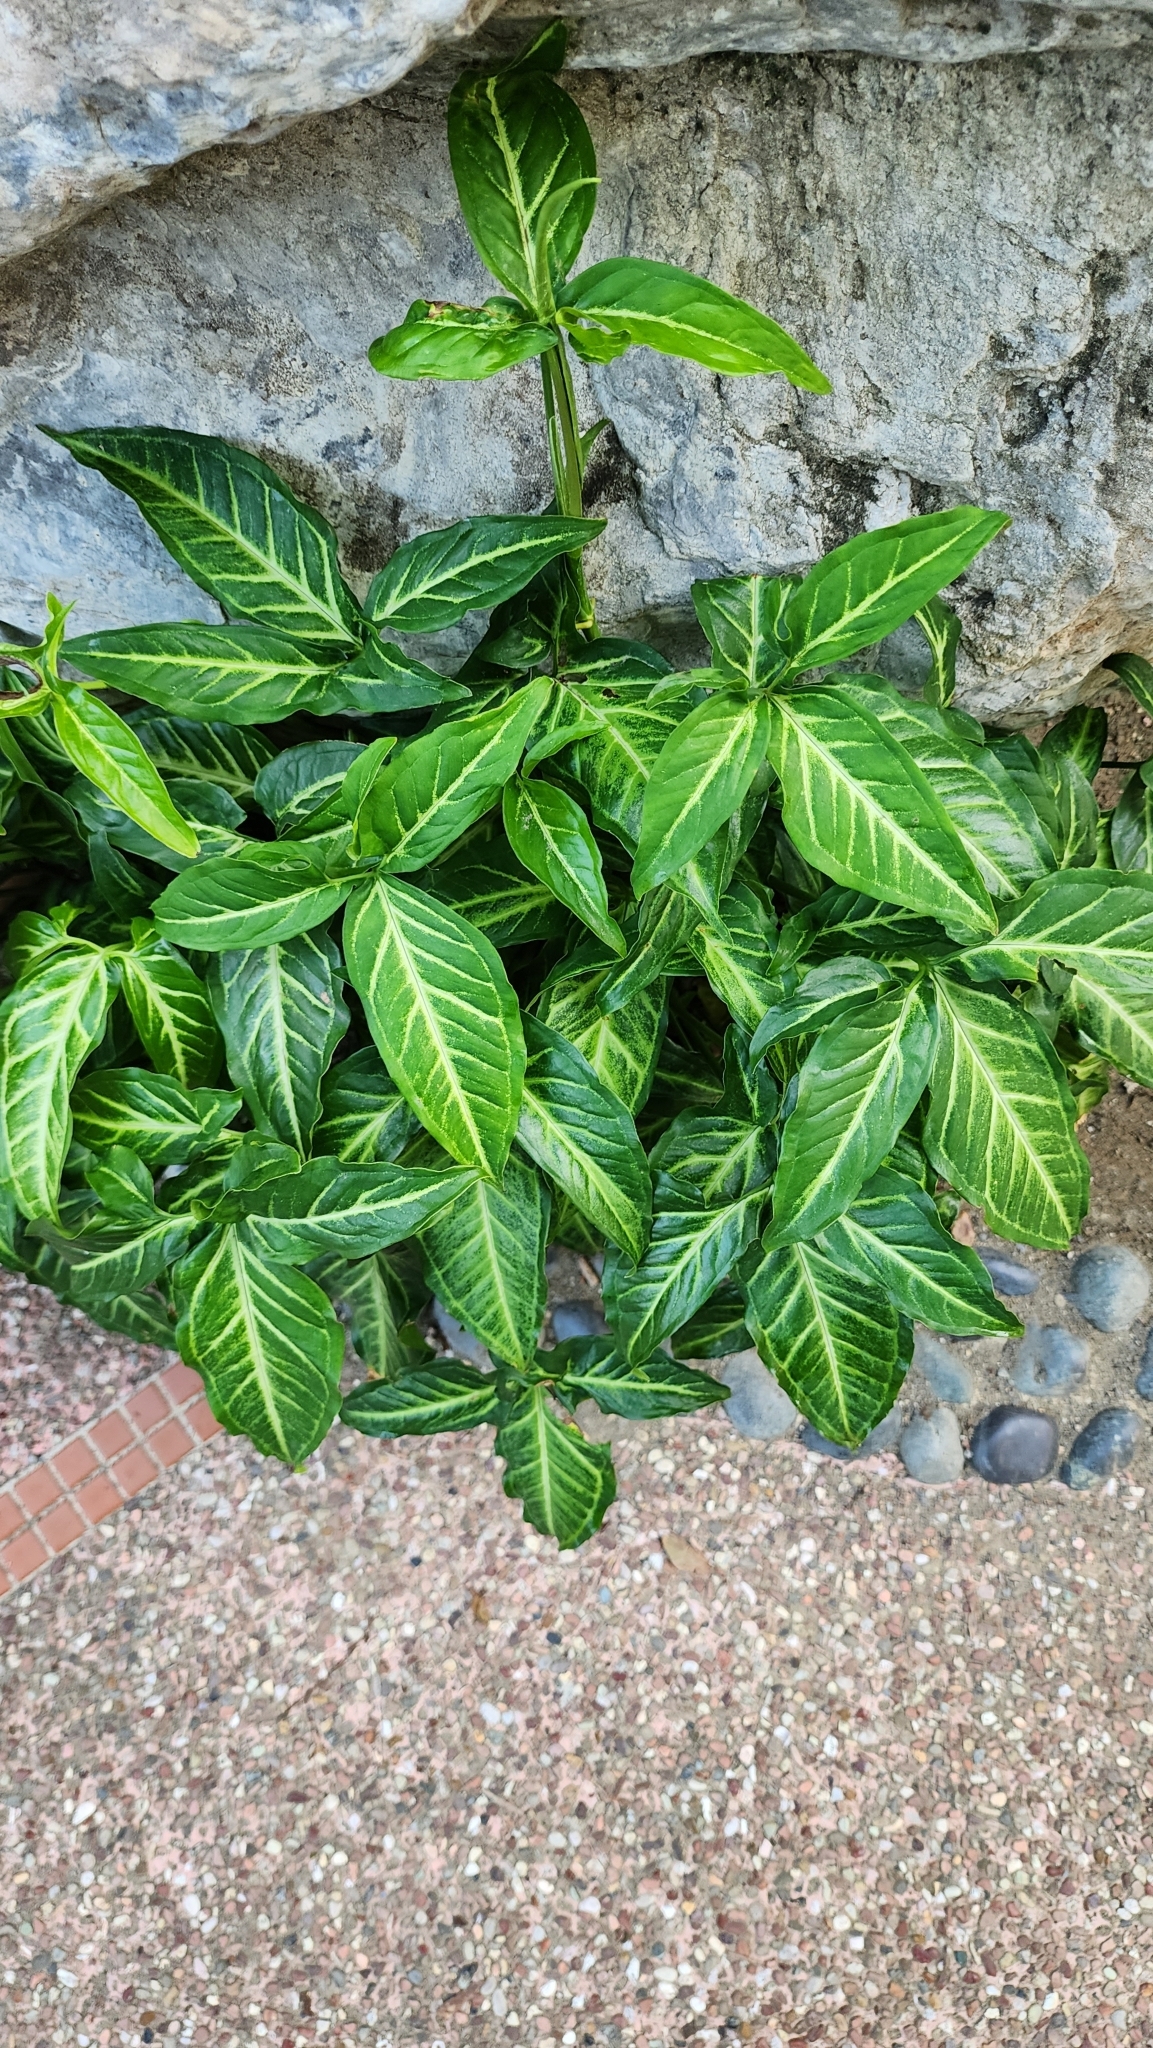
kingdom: Plantae
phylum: Tracheophyta
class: Liliopsida
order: Alismatales
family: Araceae
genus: Syngonium
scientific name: Syngonium angustatum
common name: Fivefingers
